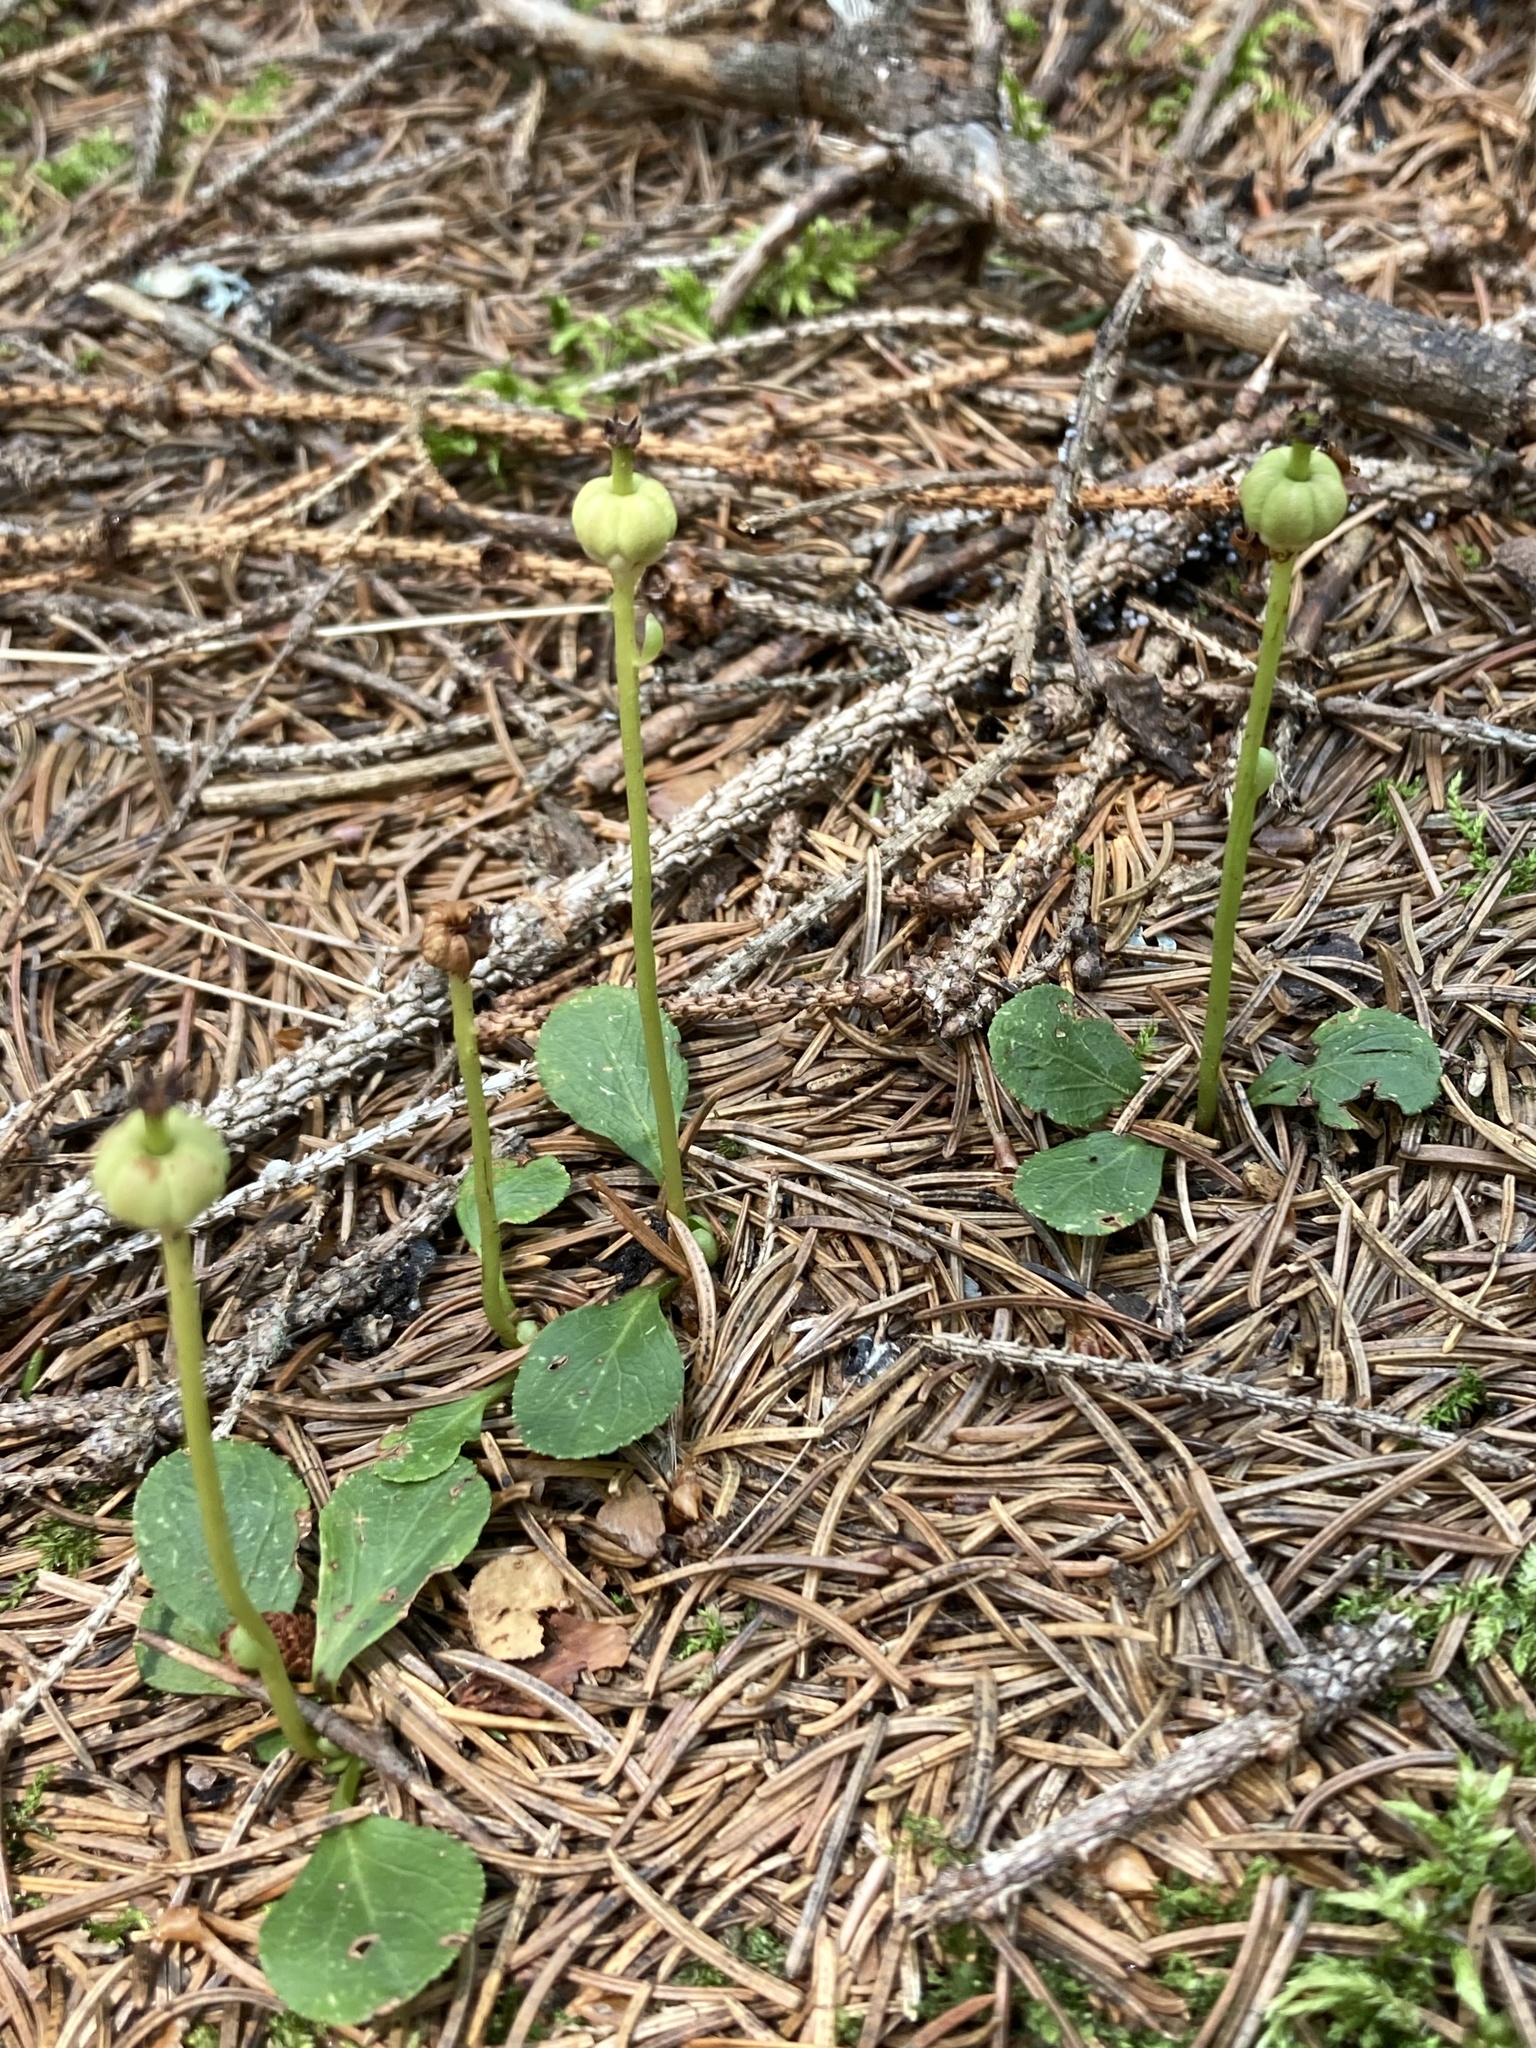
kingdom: Plantae
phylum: Tracheophyta
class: Magnoliopsida
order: Ericales
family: Ericaceae
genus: Moneses
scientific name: Moneses uniflora
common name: One-flowered wintergreen
